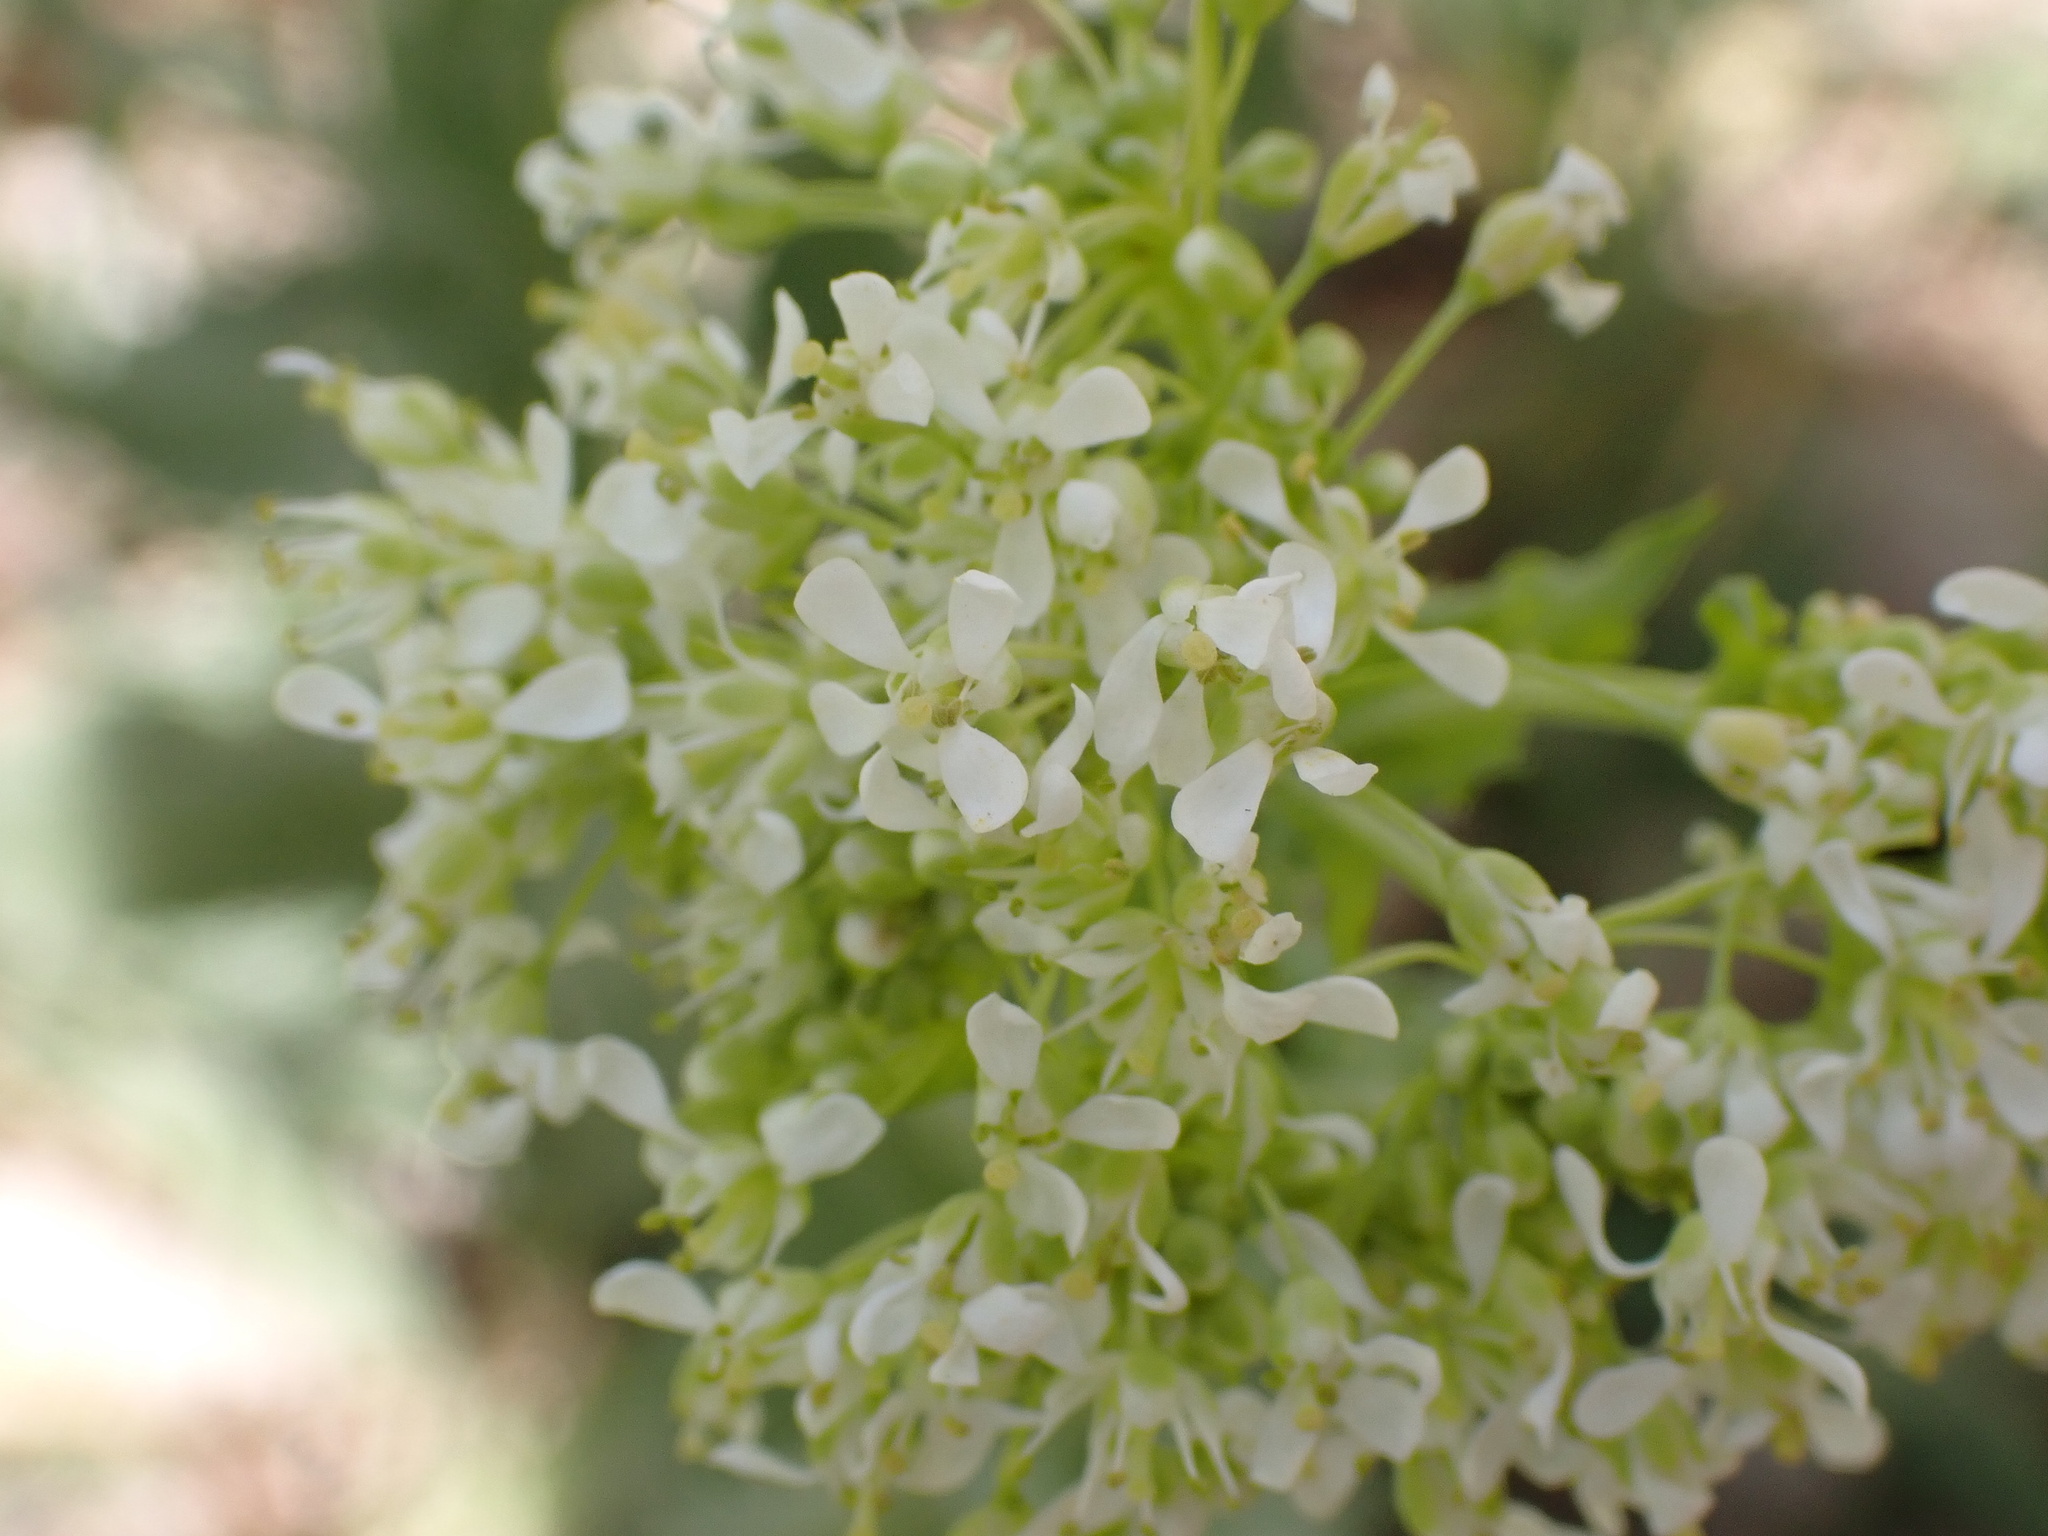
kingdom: Plantae
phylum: Tracheophyta
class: Magnoliopsida
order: Brassicales
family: Brassicaceae
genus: Lepidium
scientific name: Lepidium draba
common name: Hoary cress
